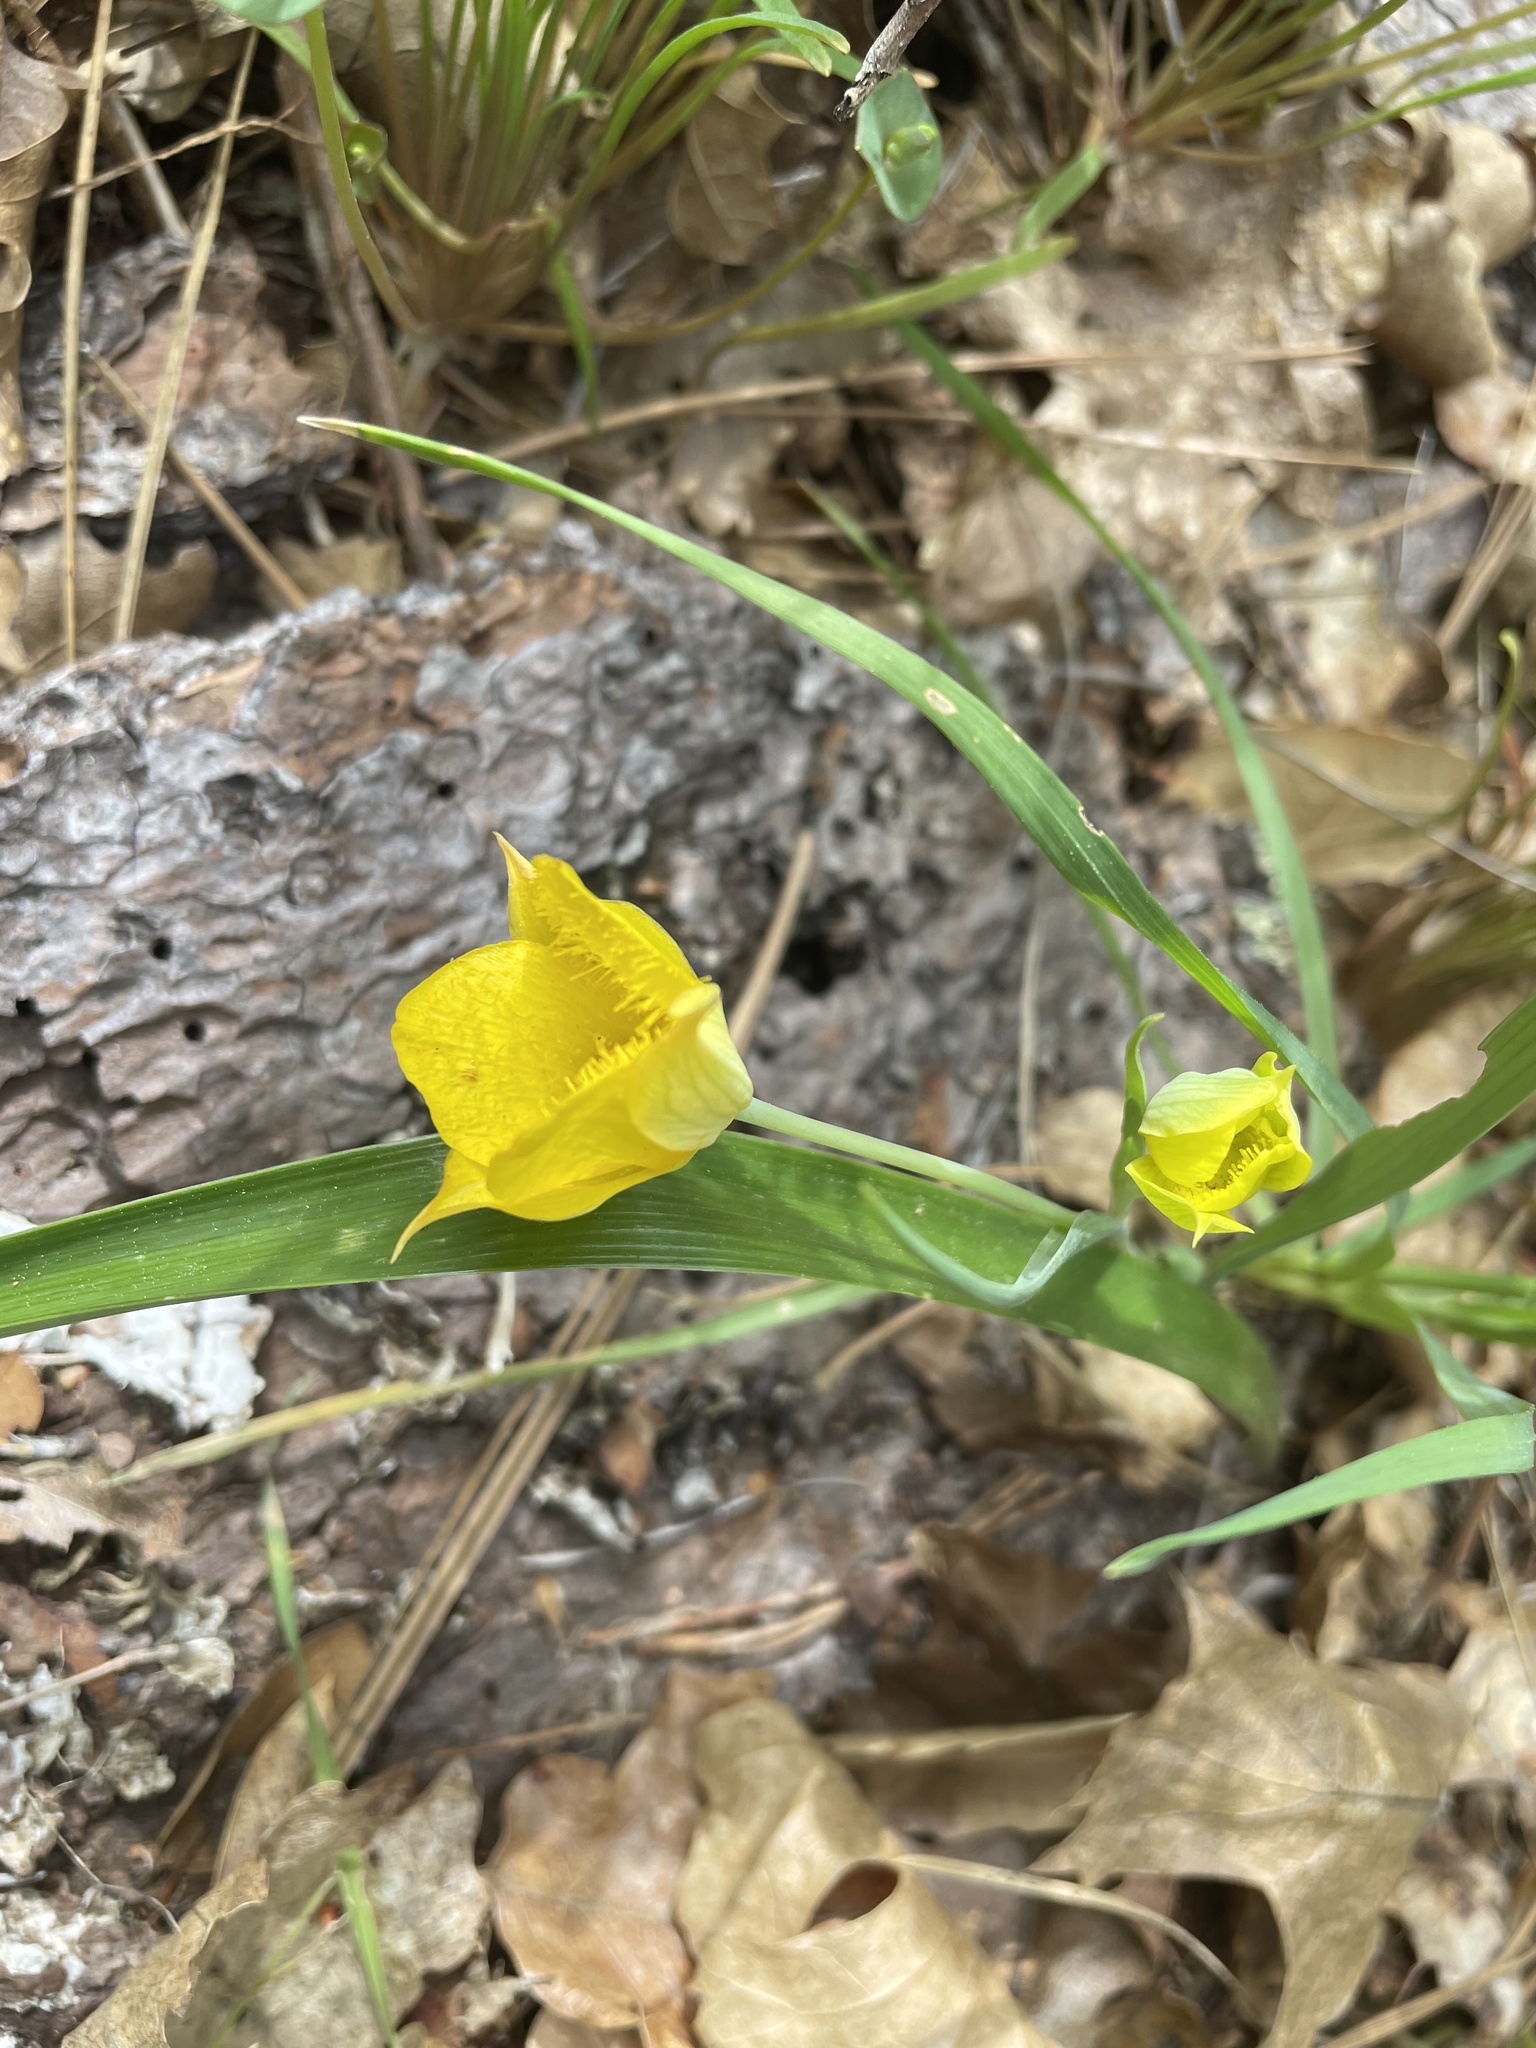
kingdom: Plantae
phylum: Tracheophyta
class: Liliopsida
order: Liliales
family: Liliaceae
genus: Calochortus
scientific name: Calochortus monophyllus
